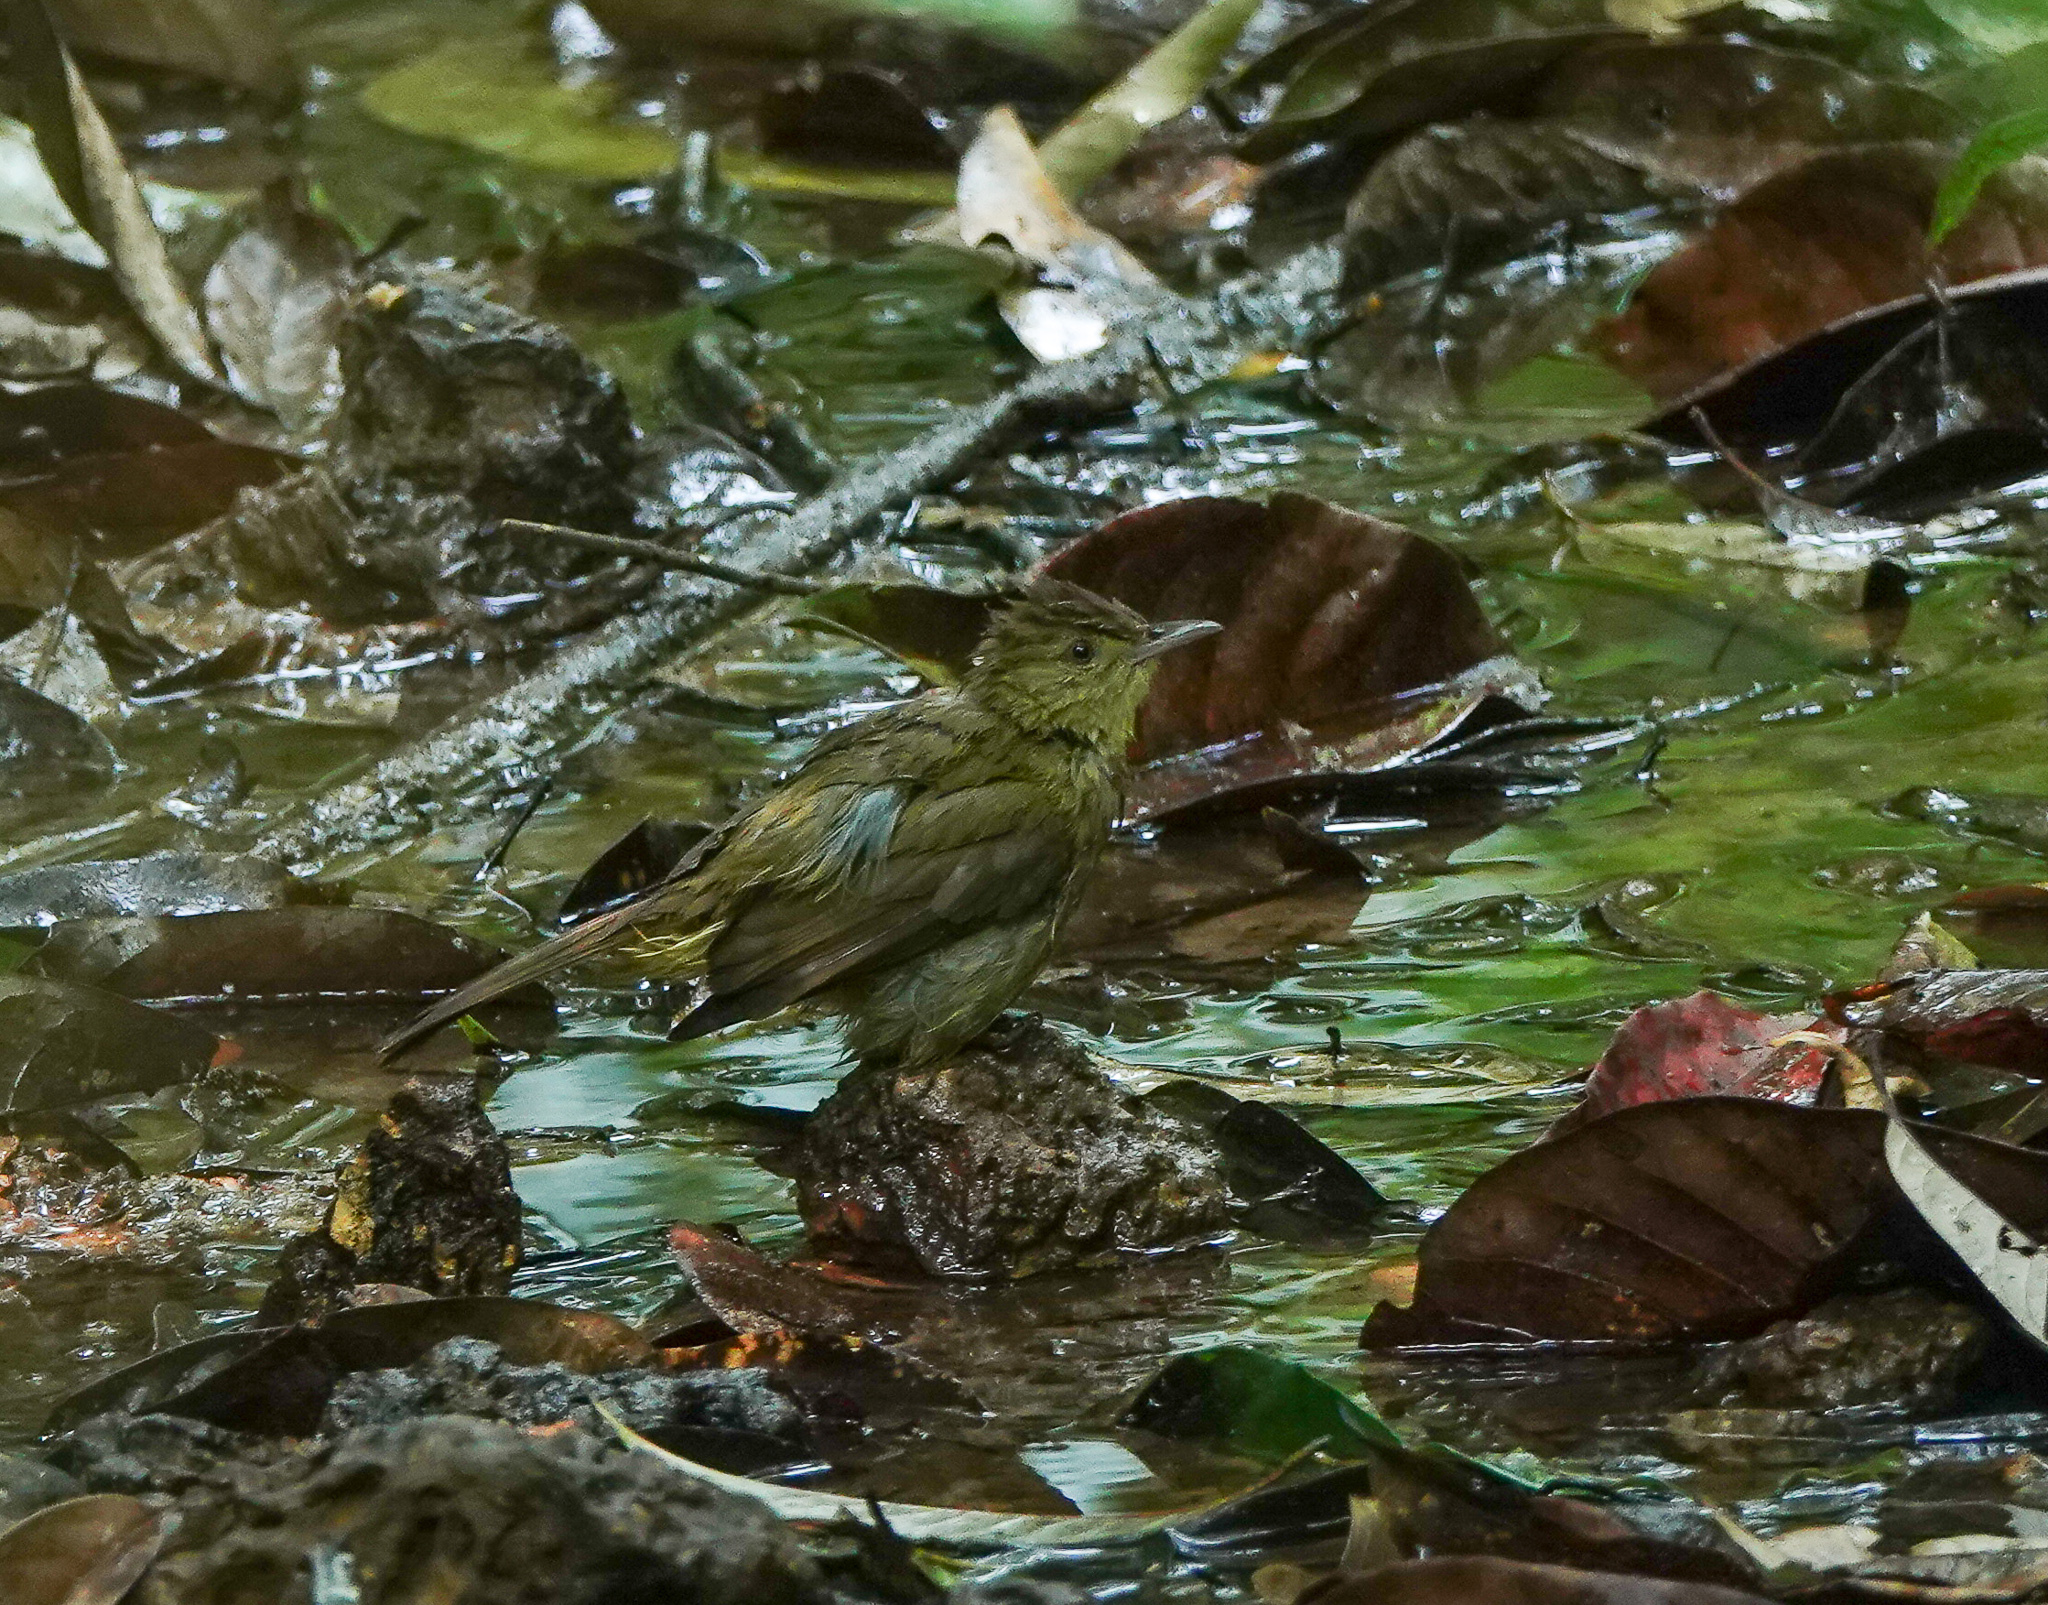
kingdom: Animalia
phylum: Arthropoda
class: Insecta
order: Lepidoptera
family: Nymphalidae
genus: Euploea
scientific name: Euploea mulciber
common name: Striped blue crow butterfly
